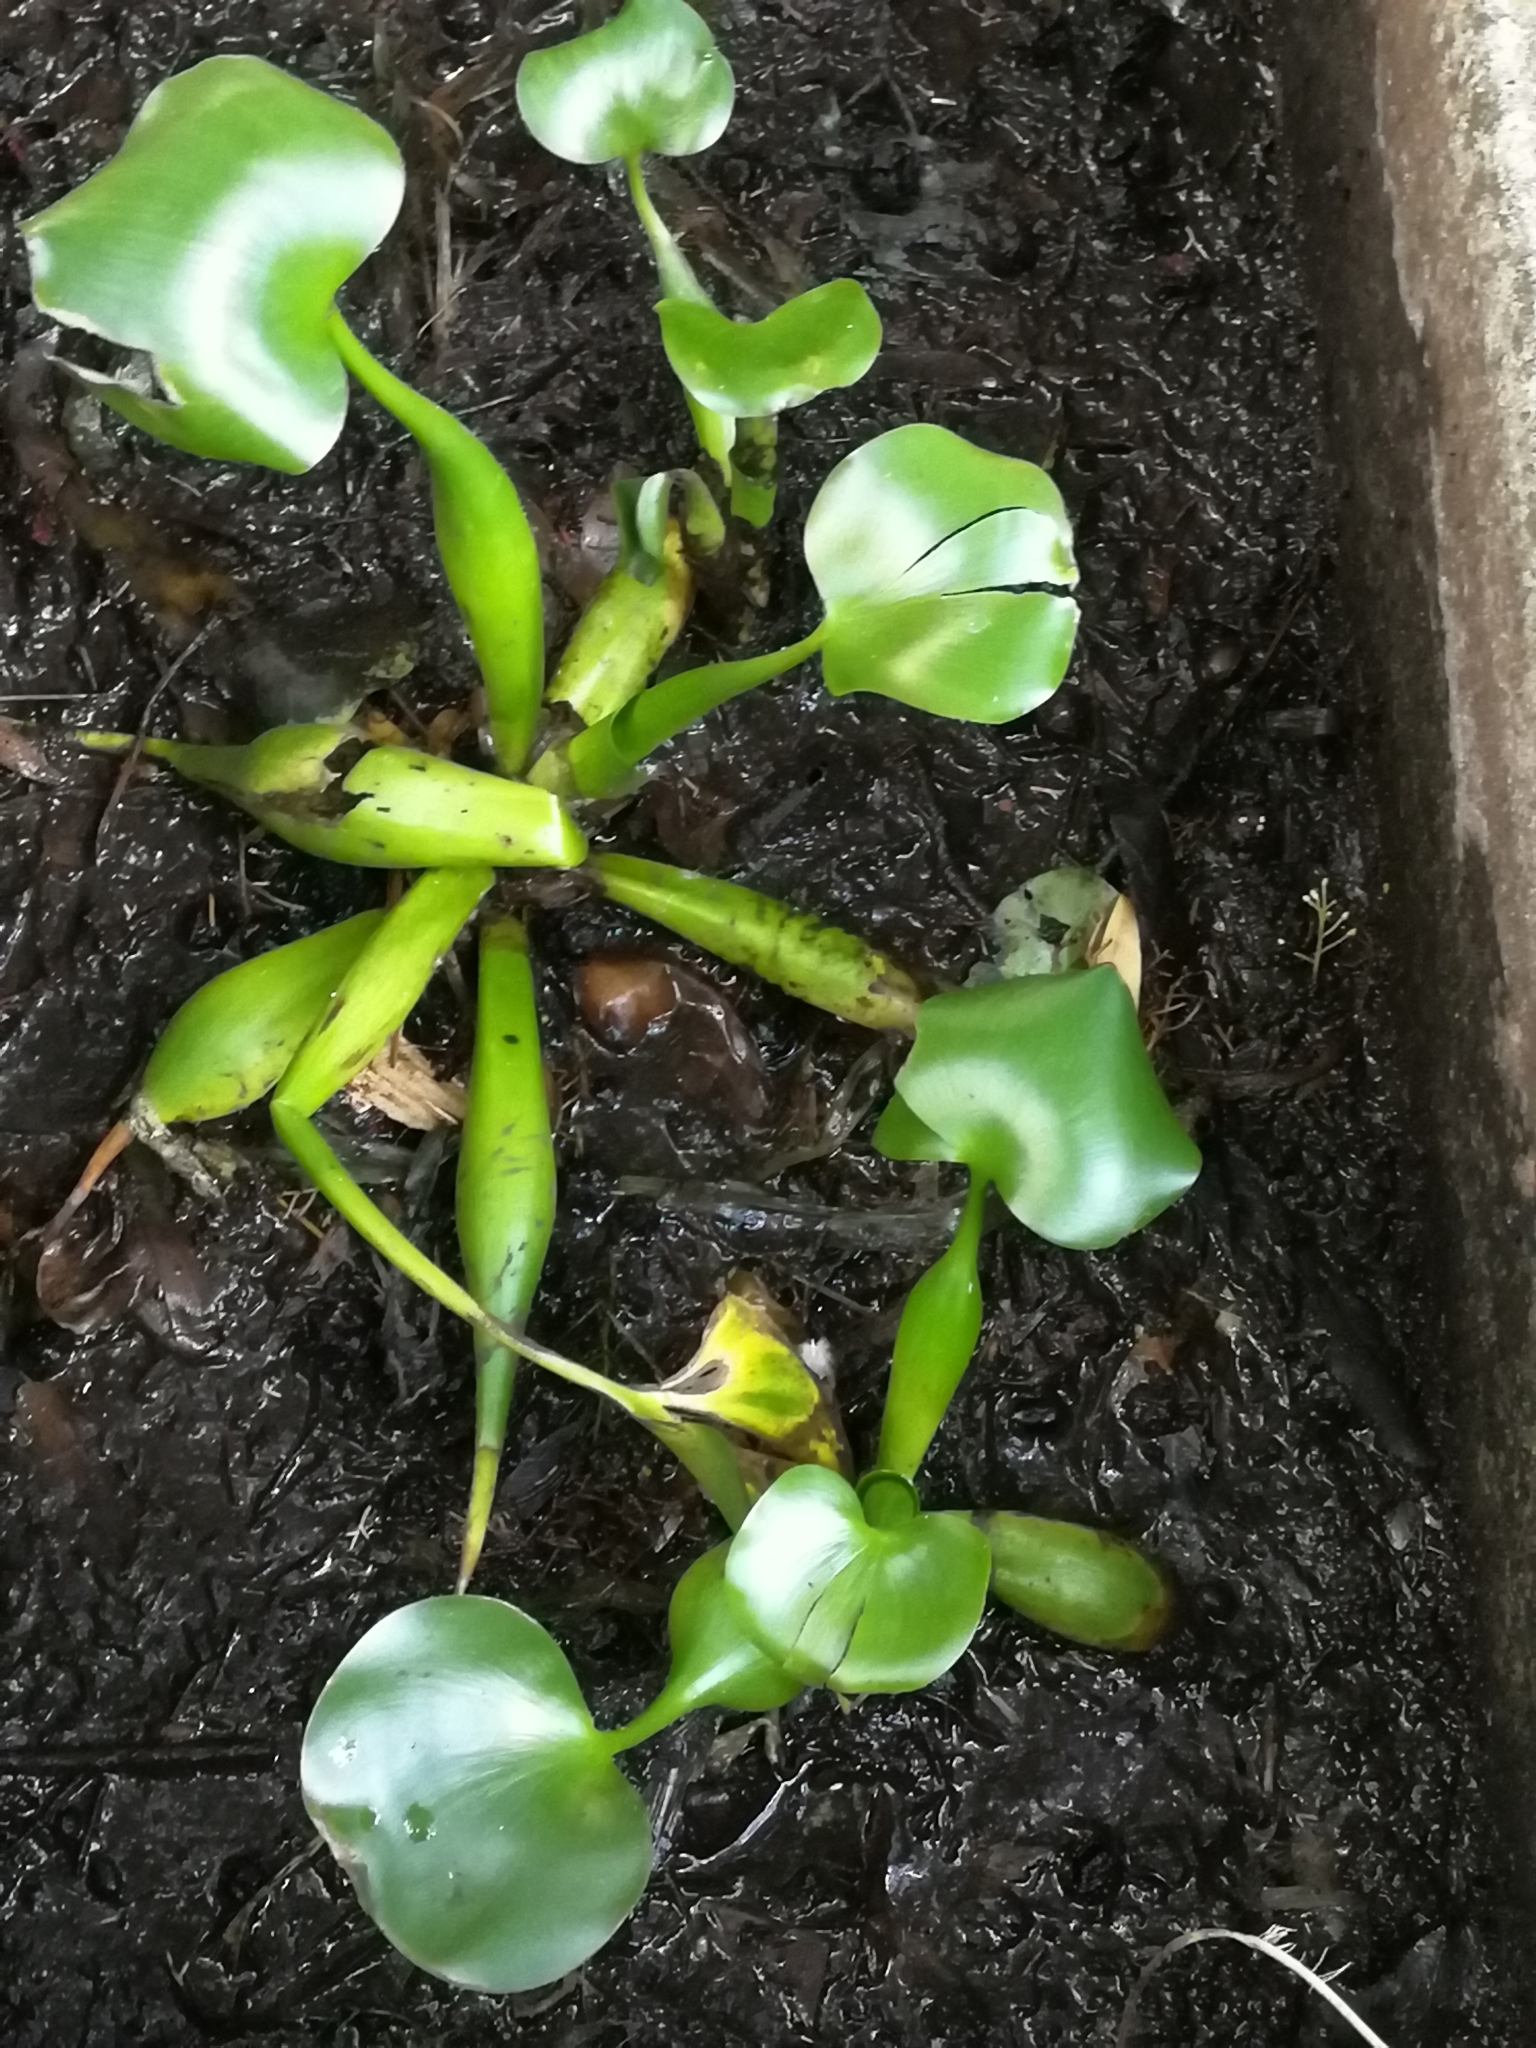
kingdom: Plantae
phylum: Tracheophyta
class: Liliopsida
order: Commelinales
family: Pontederiaceae
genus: Pontederia
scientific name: Pontederia crassipes
